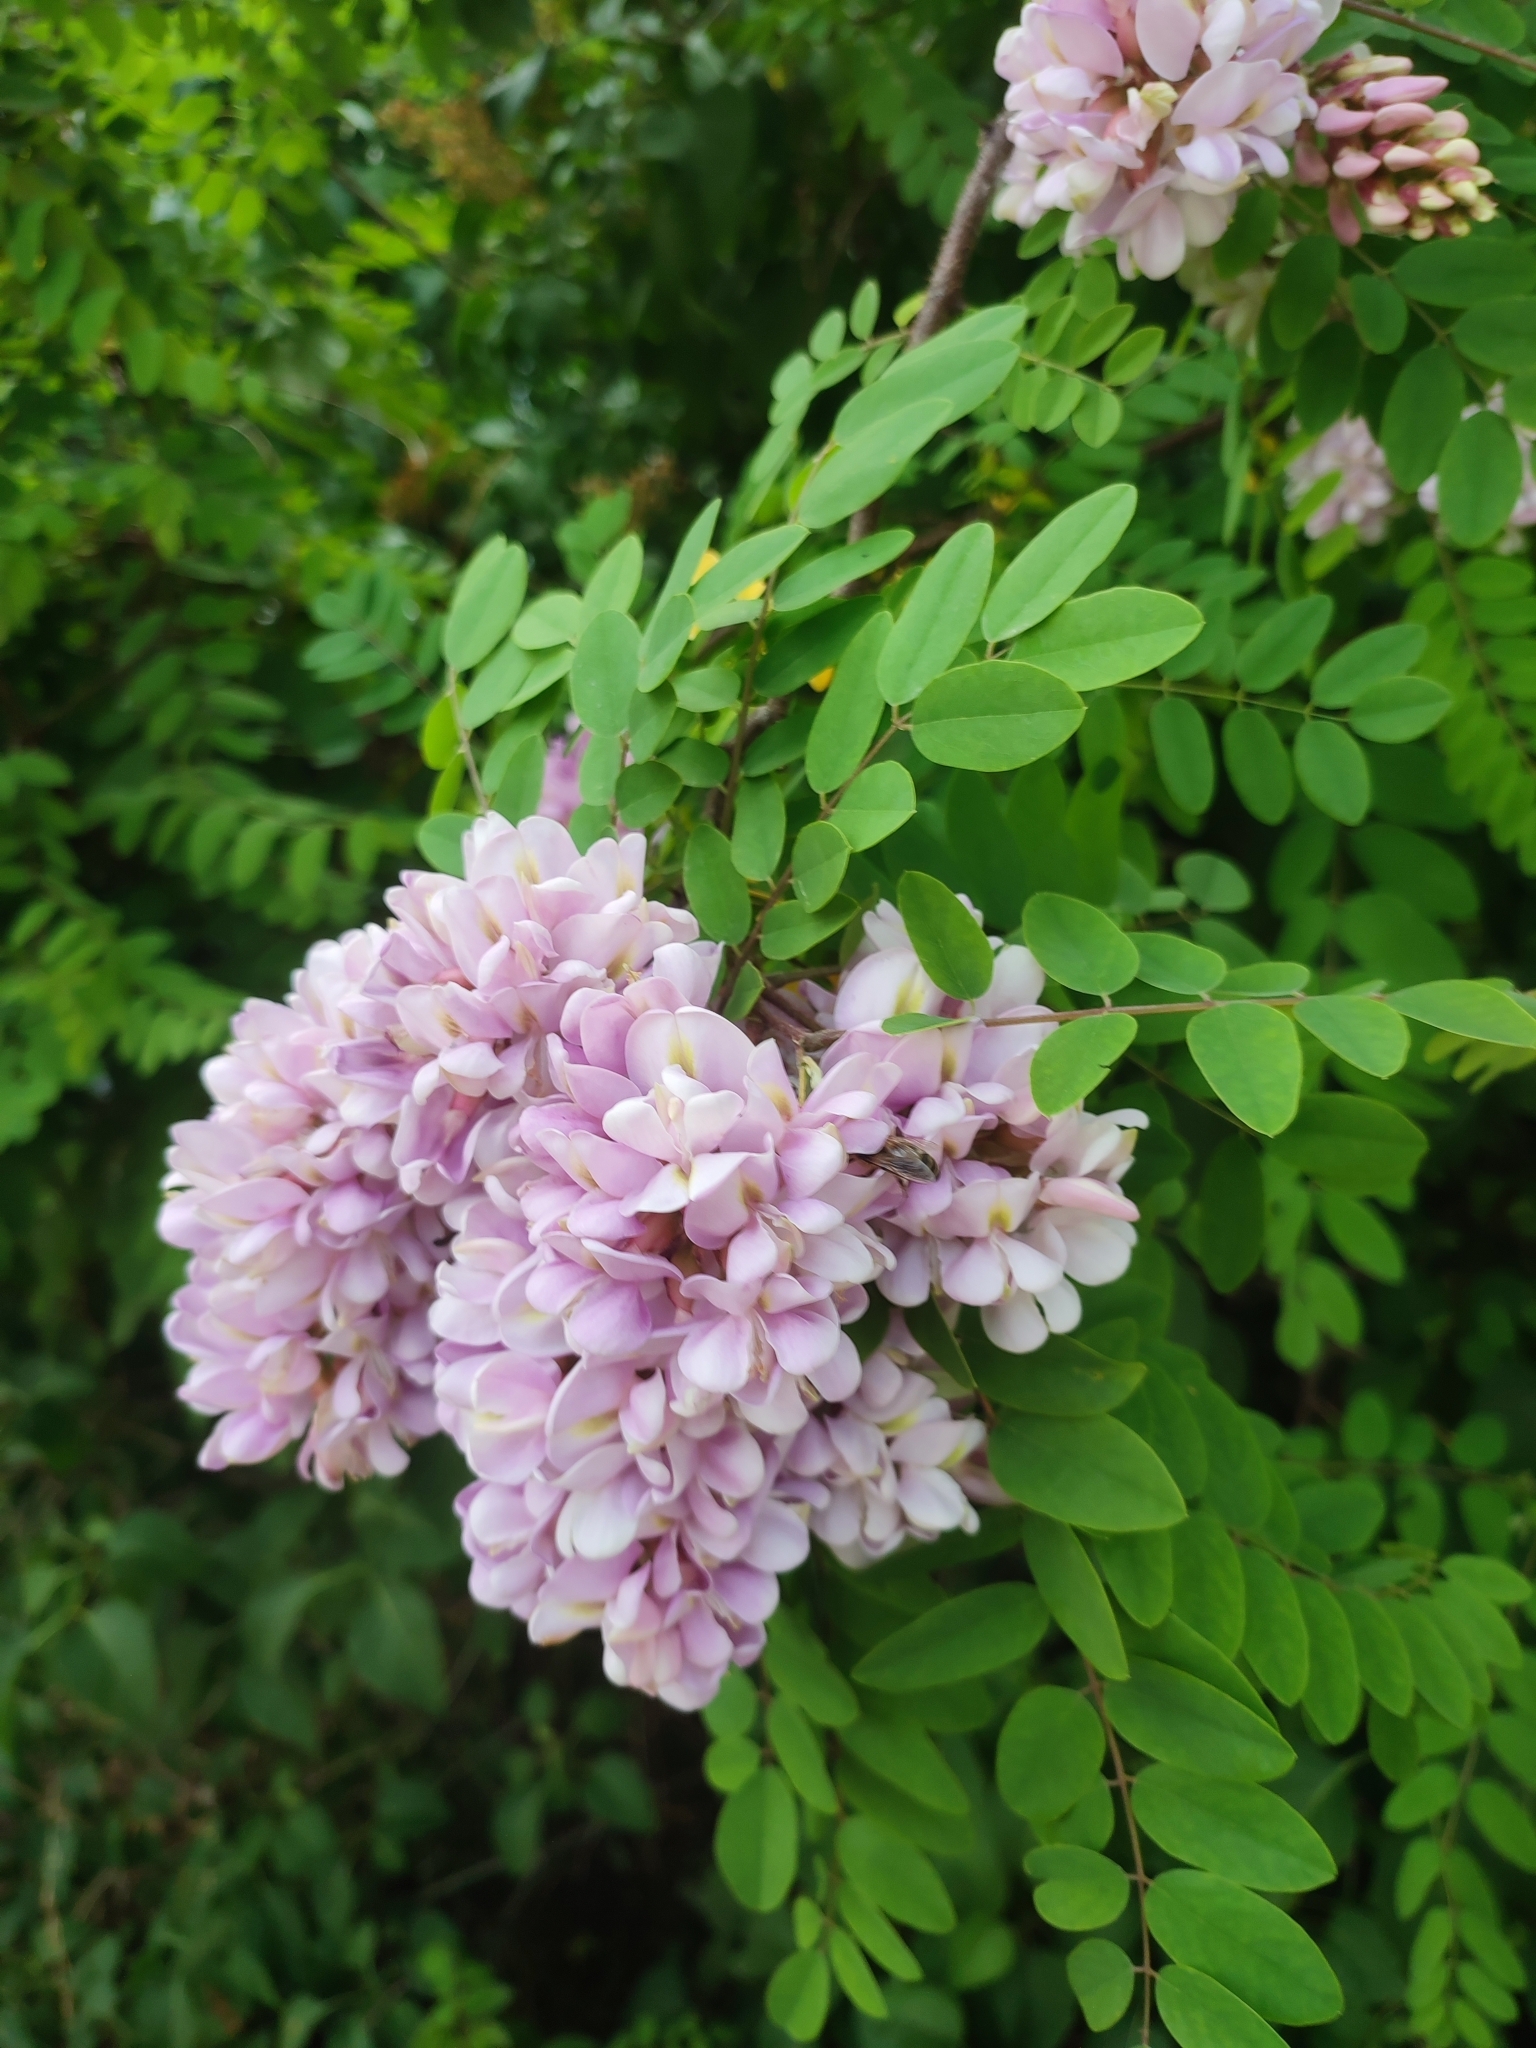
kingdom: Plantae
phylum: Tracheophyta
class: Magnoliopsida
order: Fabales
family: Fabaceae
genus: Robinia
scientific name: Robinia pseudoacacia
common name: Black locust
